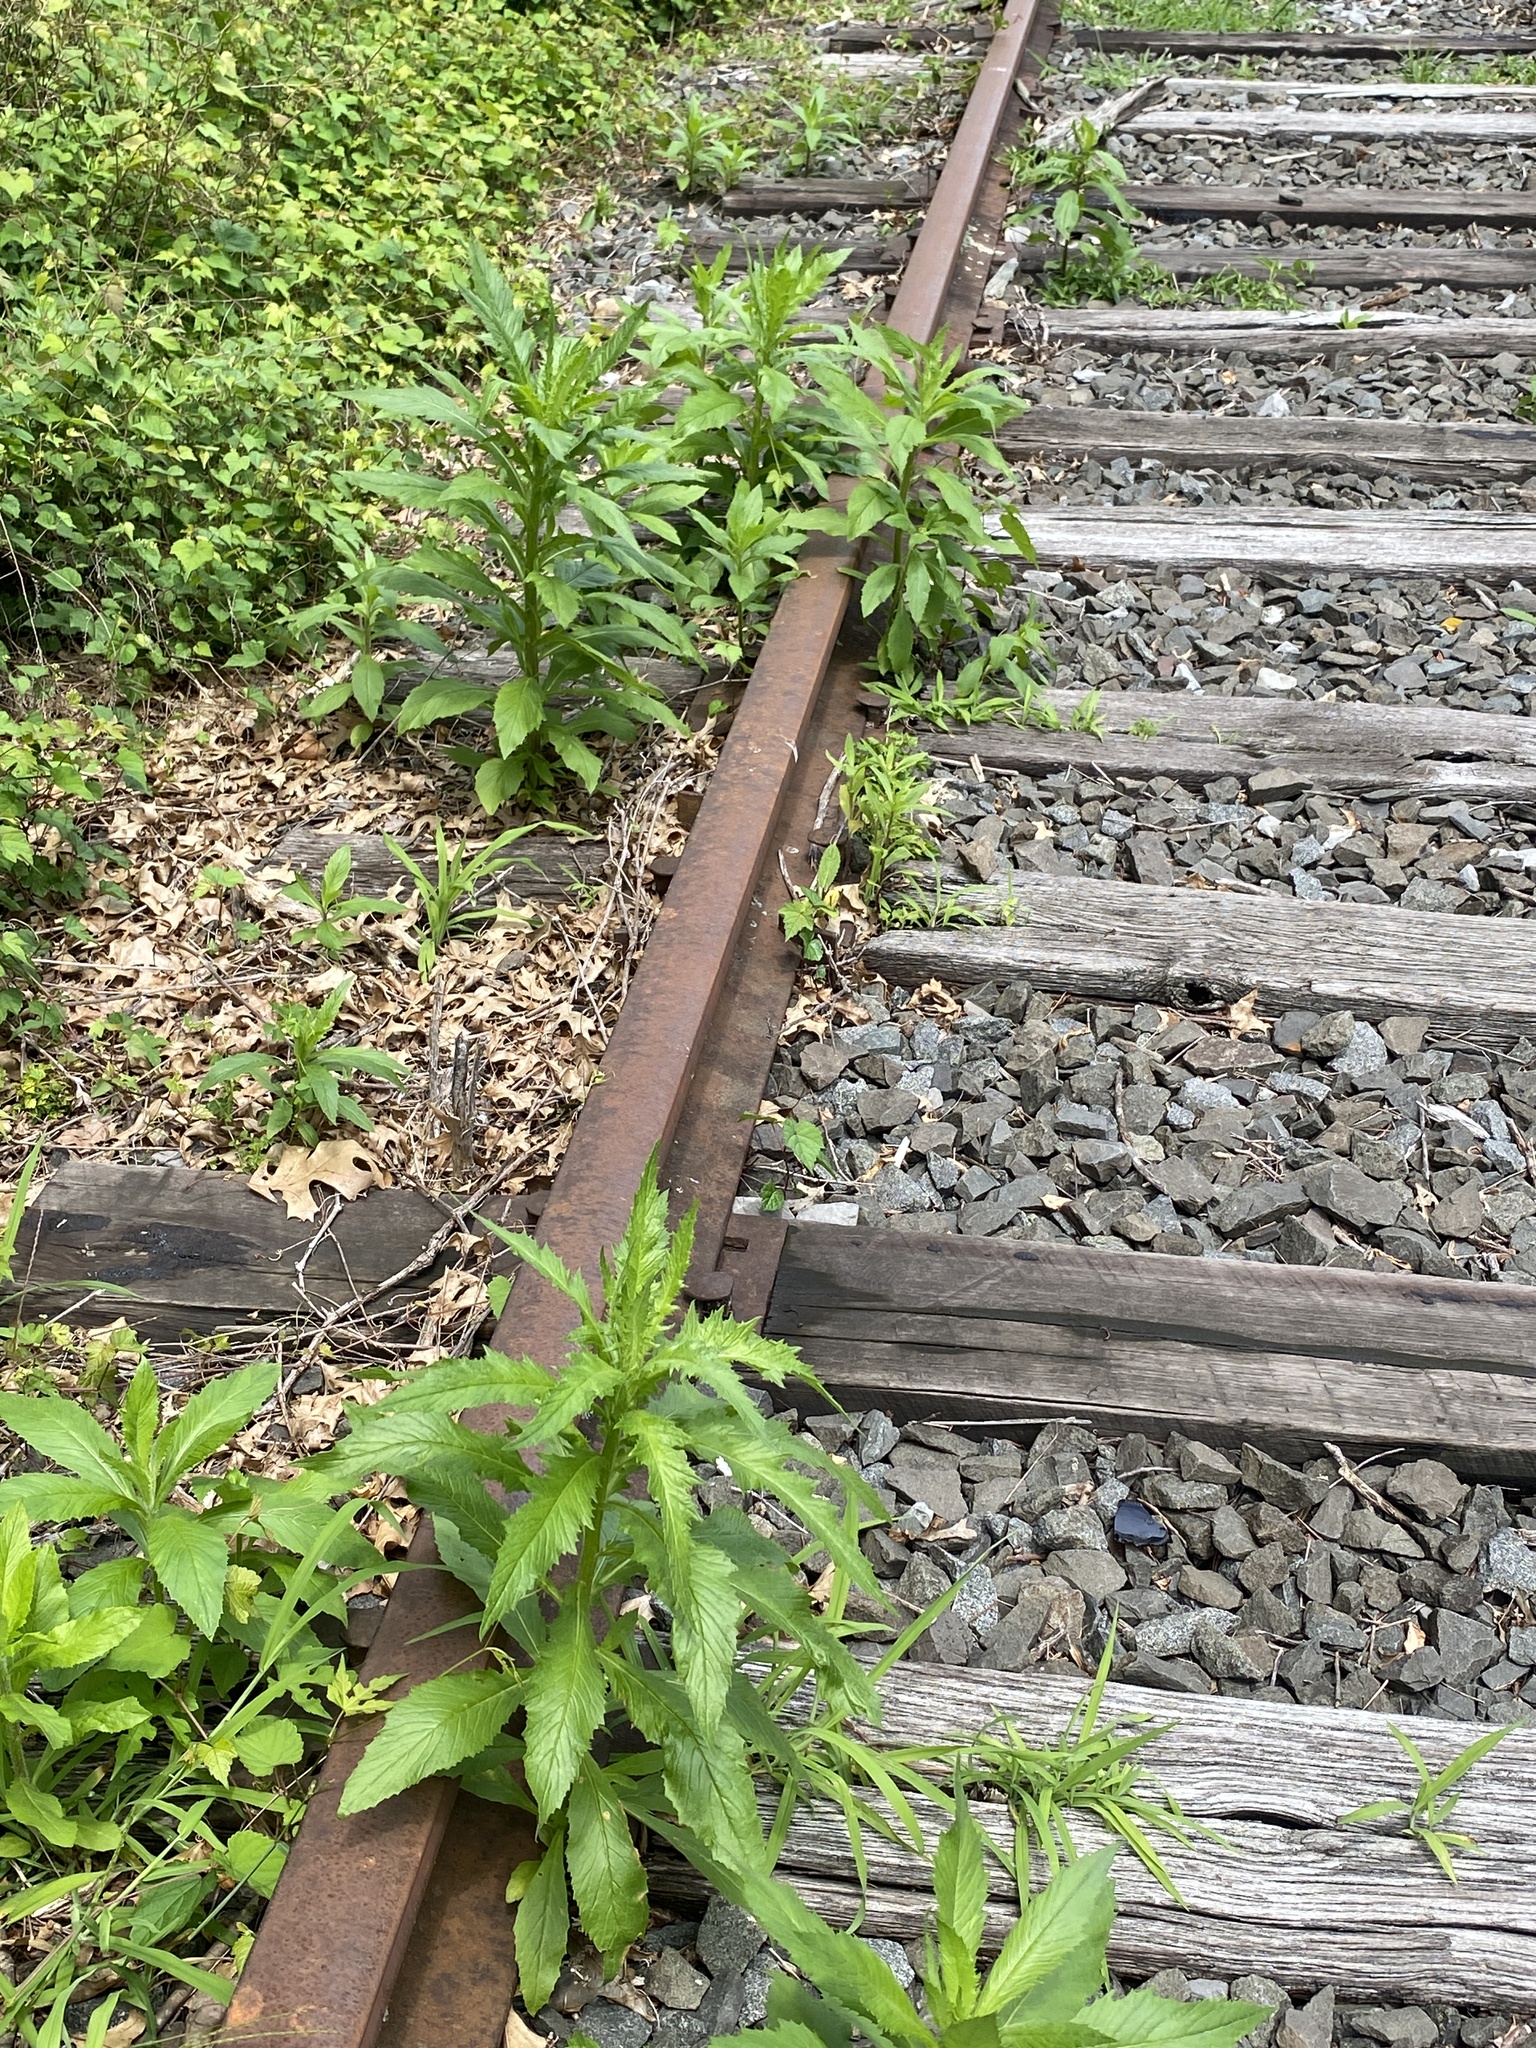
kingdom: Plantae
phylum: Tracheophyta
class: Magnoliopsida
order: Asterales
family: Asteraceae
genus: Erechtites
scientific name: Erechtites hieraciifolius
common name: American burnweed
